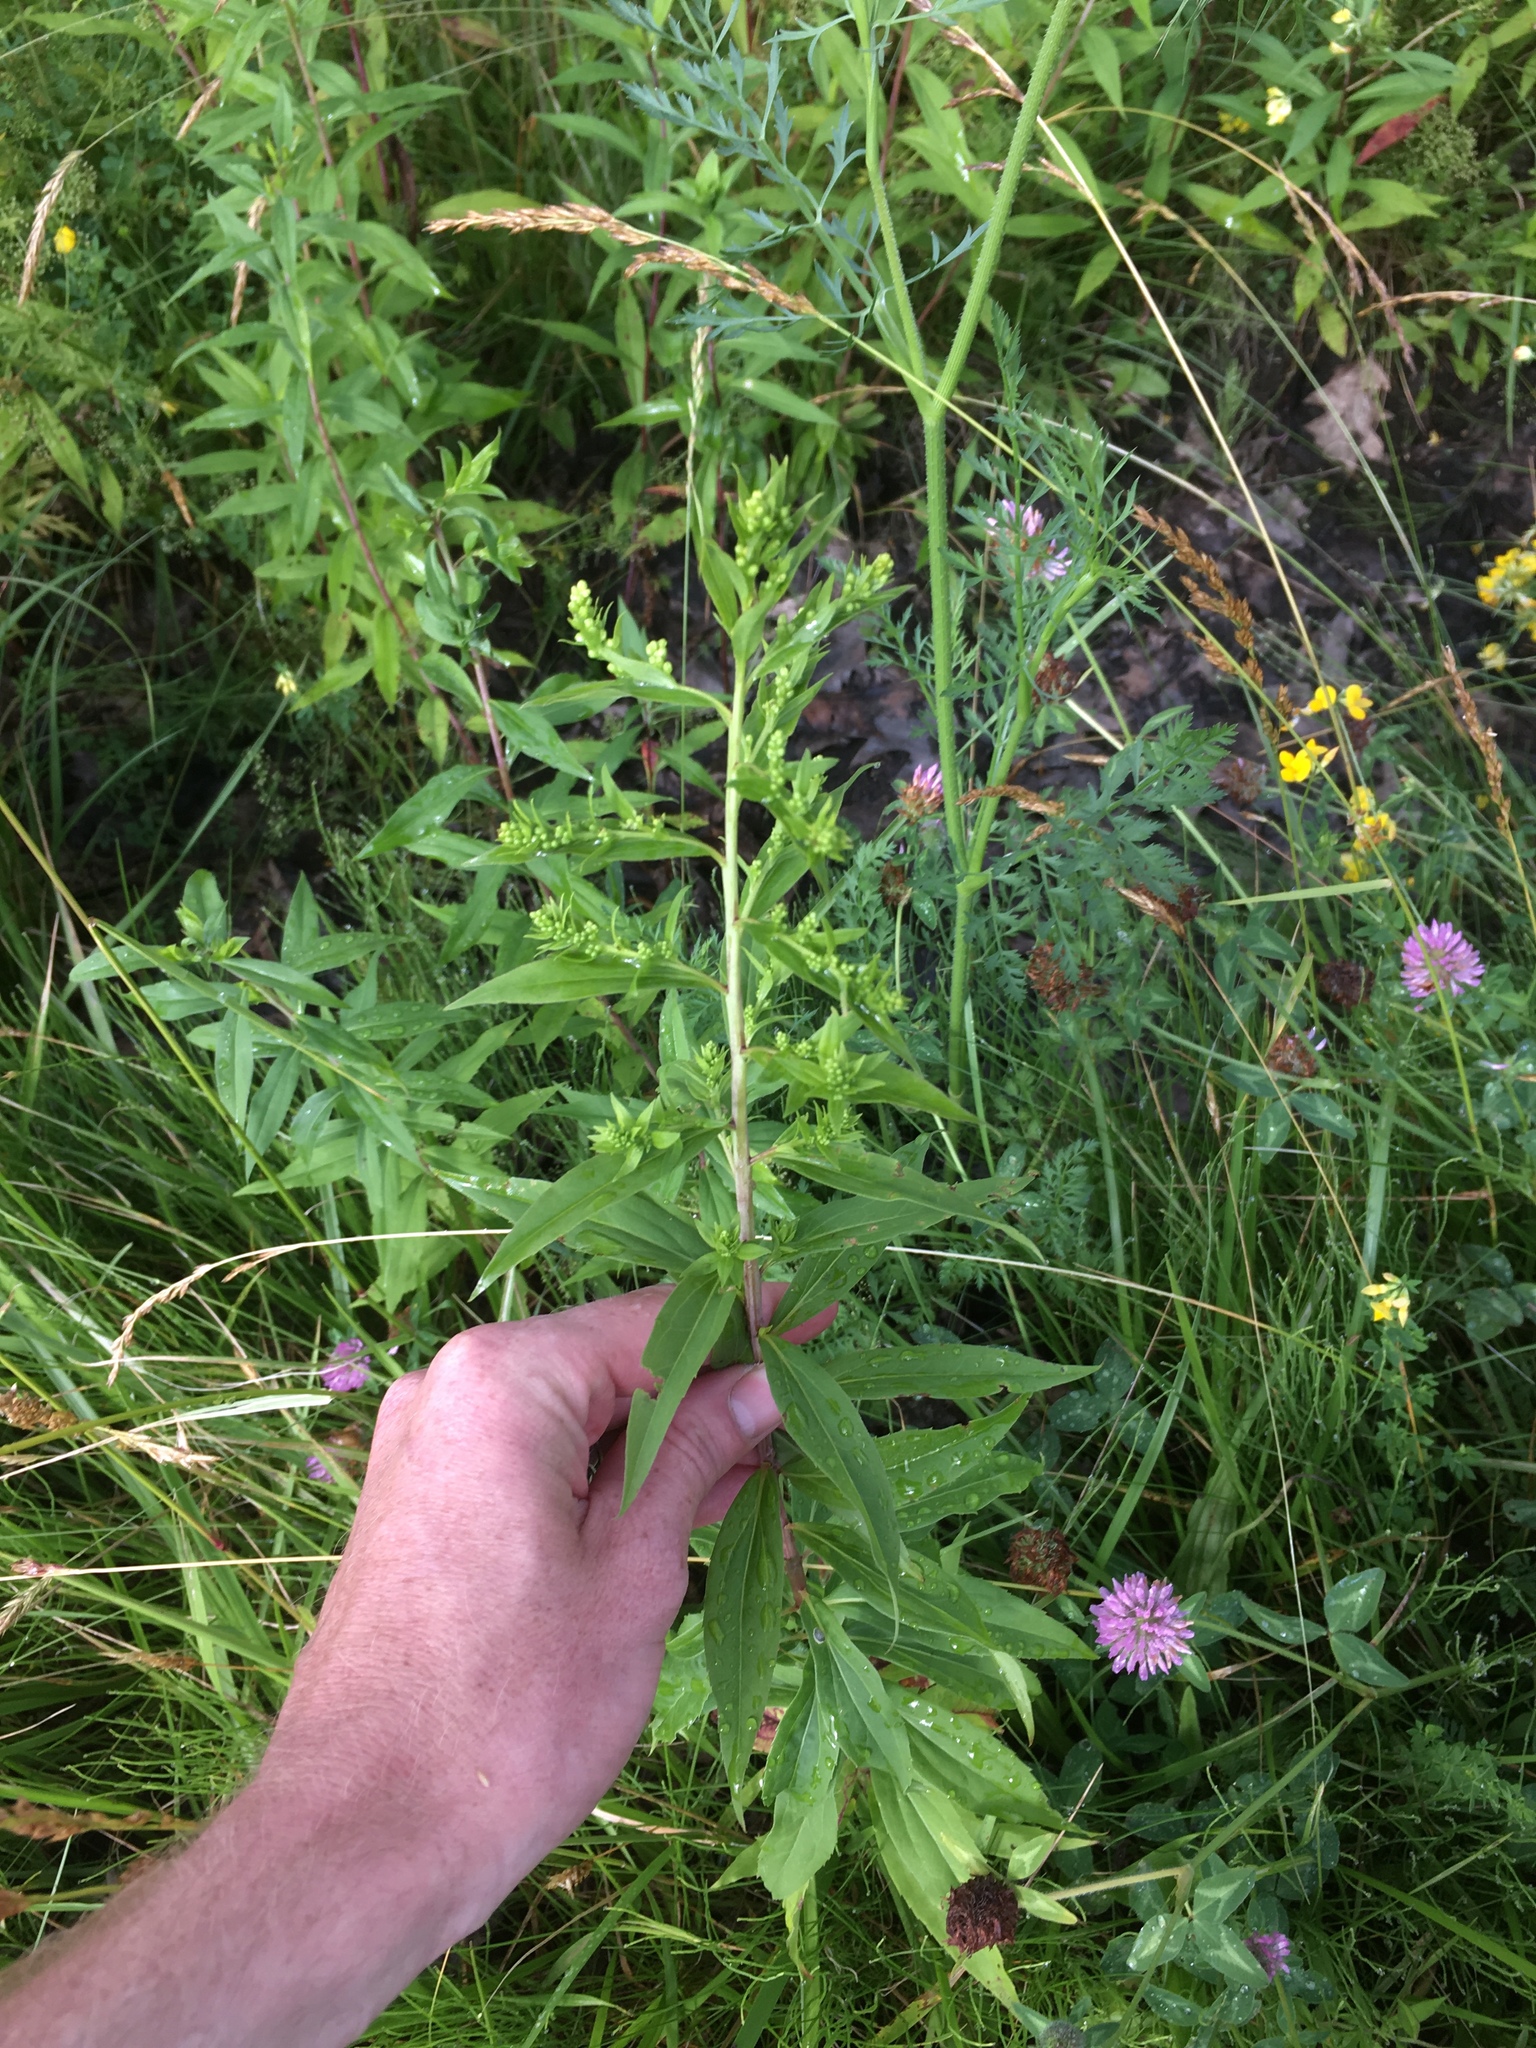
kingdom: Plantae
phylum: Tracheophyta
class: Magnoliopsida
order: Asterales
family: Asteraceae
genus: Solidago
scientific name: Solidago gigantea
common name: Giant goldenrod
